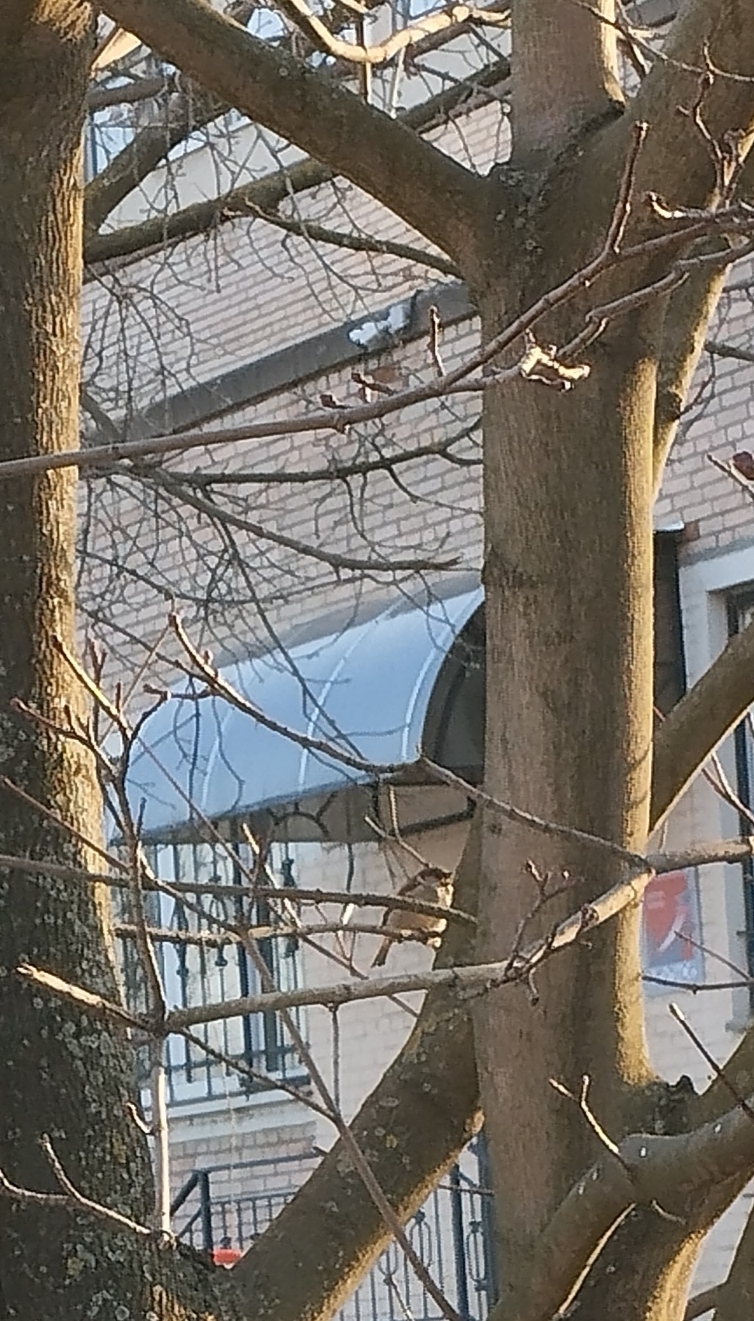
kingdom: Animalia
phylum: Chordata
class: Aves
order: Passeriformes
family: Passeridae
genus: Passer
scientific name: Passer domesticus
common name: House sparrow
